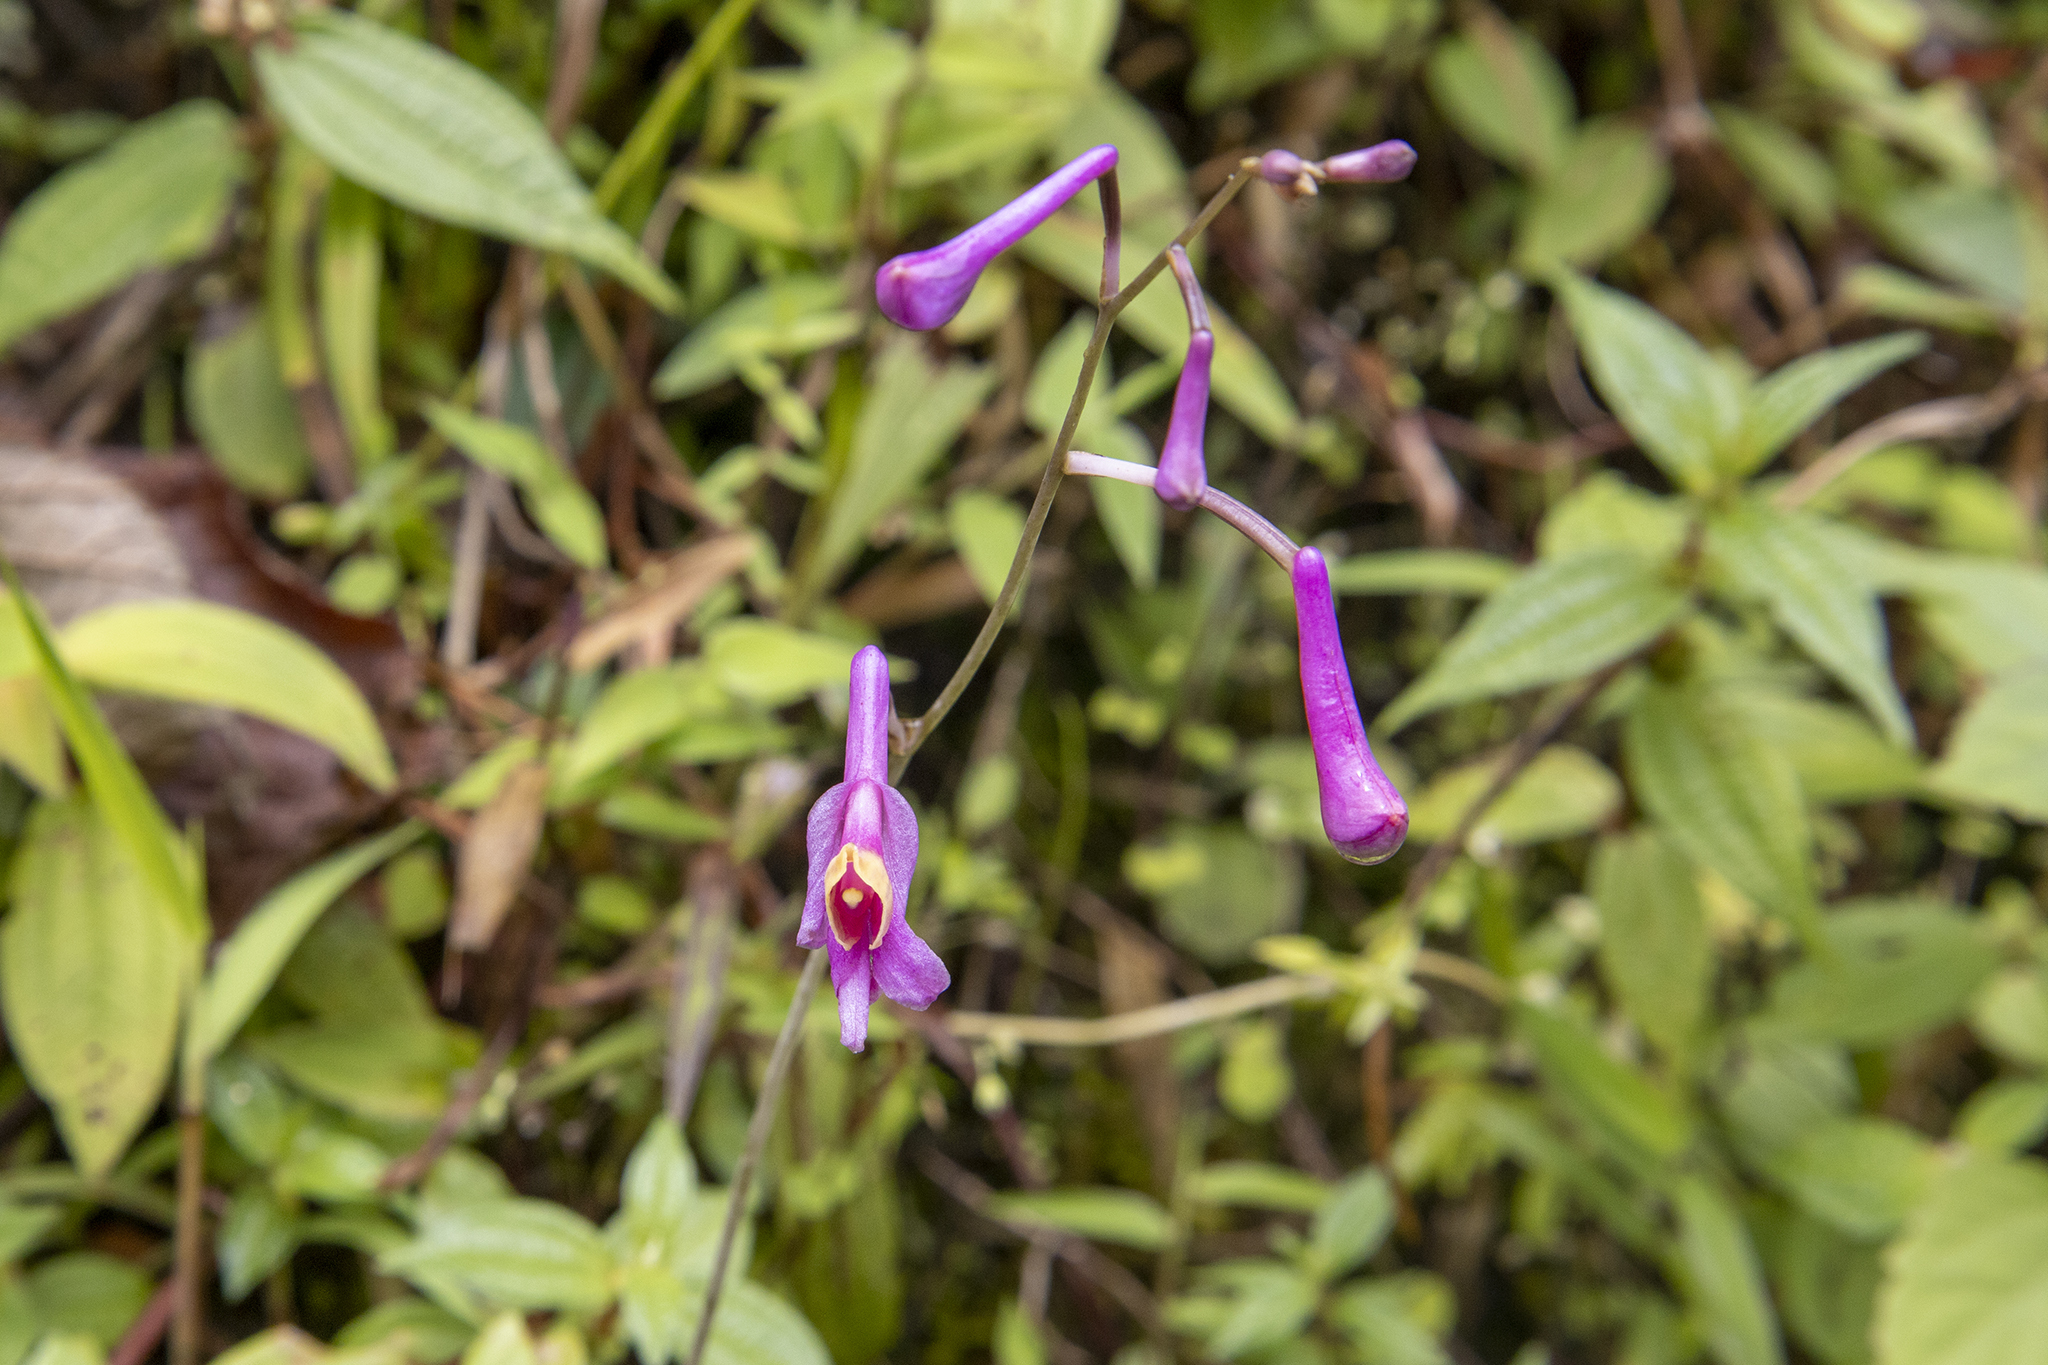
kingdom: Plantae
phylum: Tracheophyta
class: Liliopsida
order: Asparagales
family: Orchidaceae
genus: Anthogonium
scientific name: Anthogonium gracile
